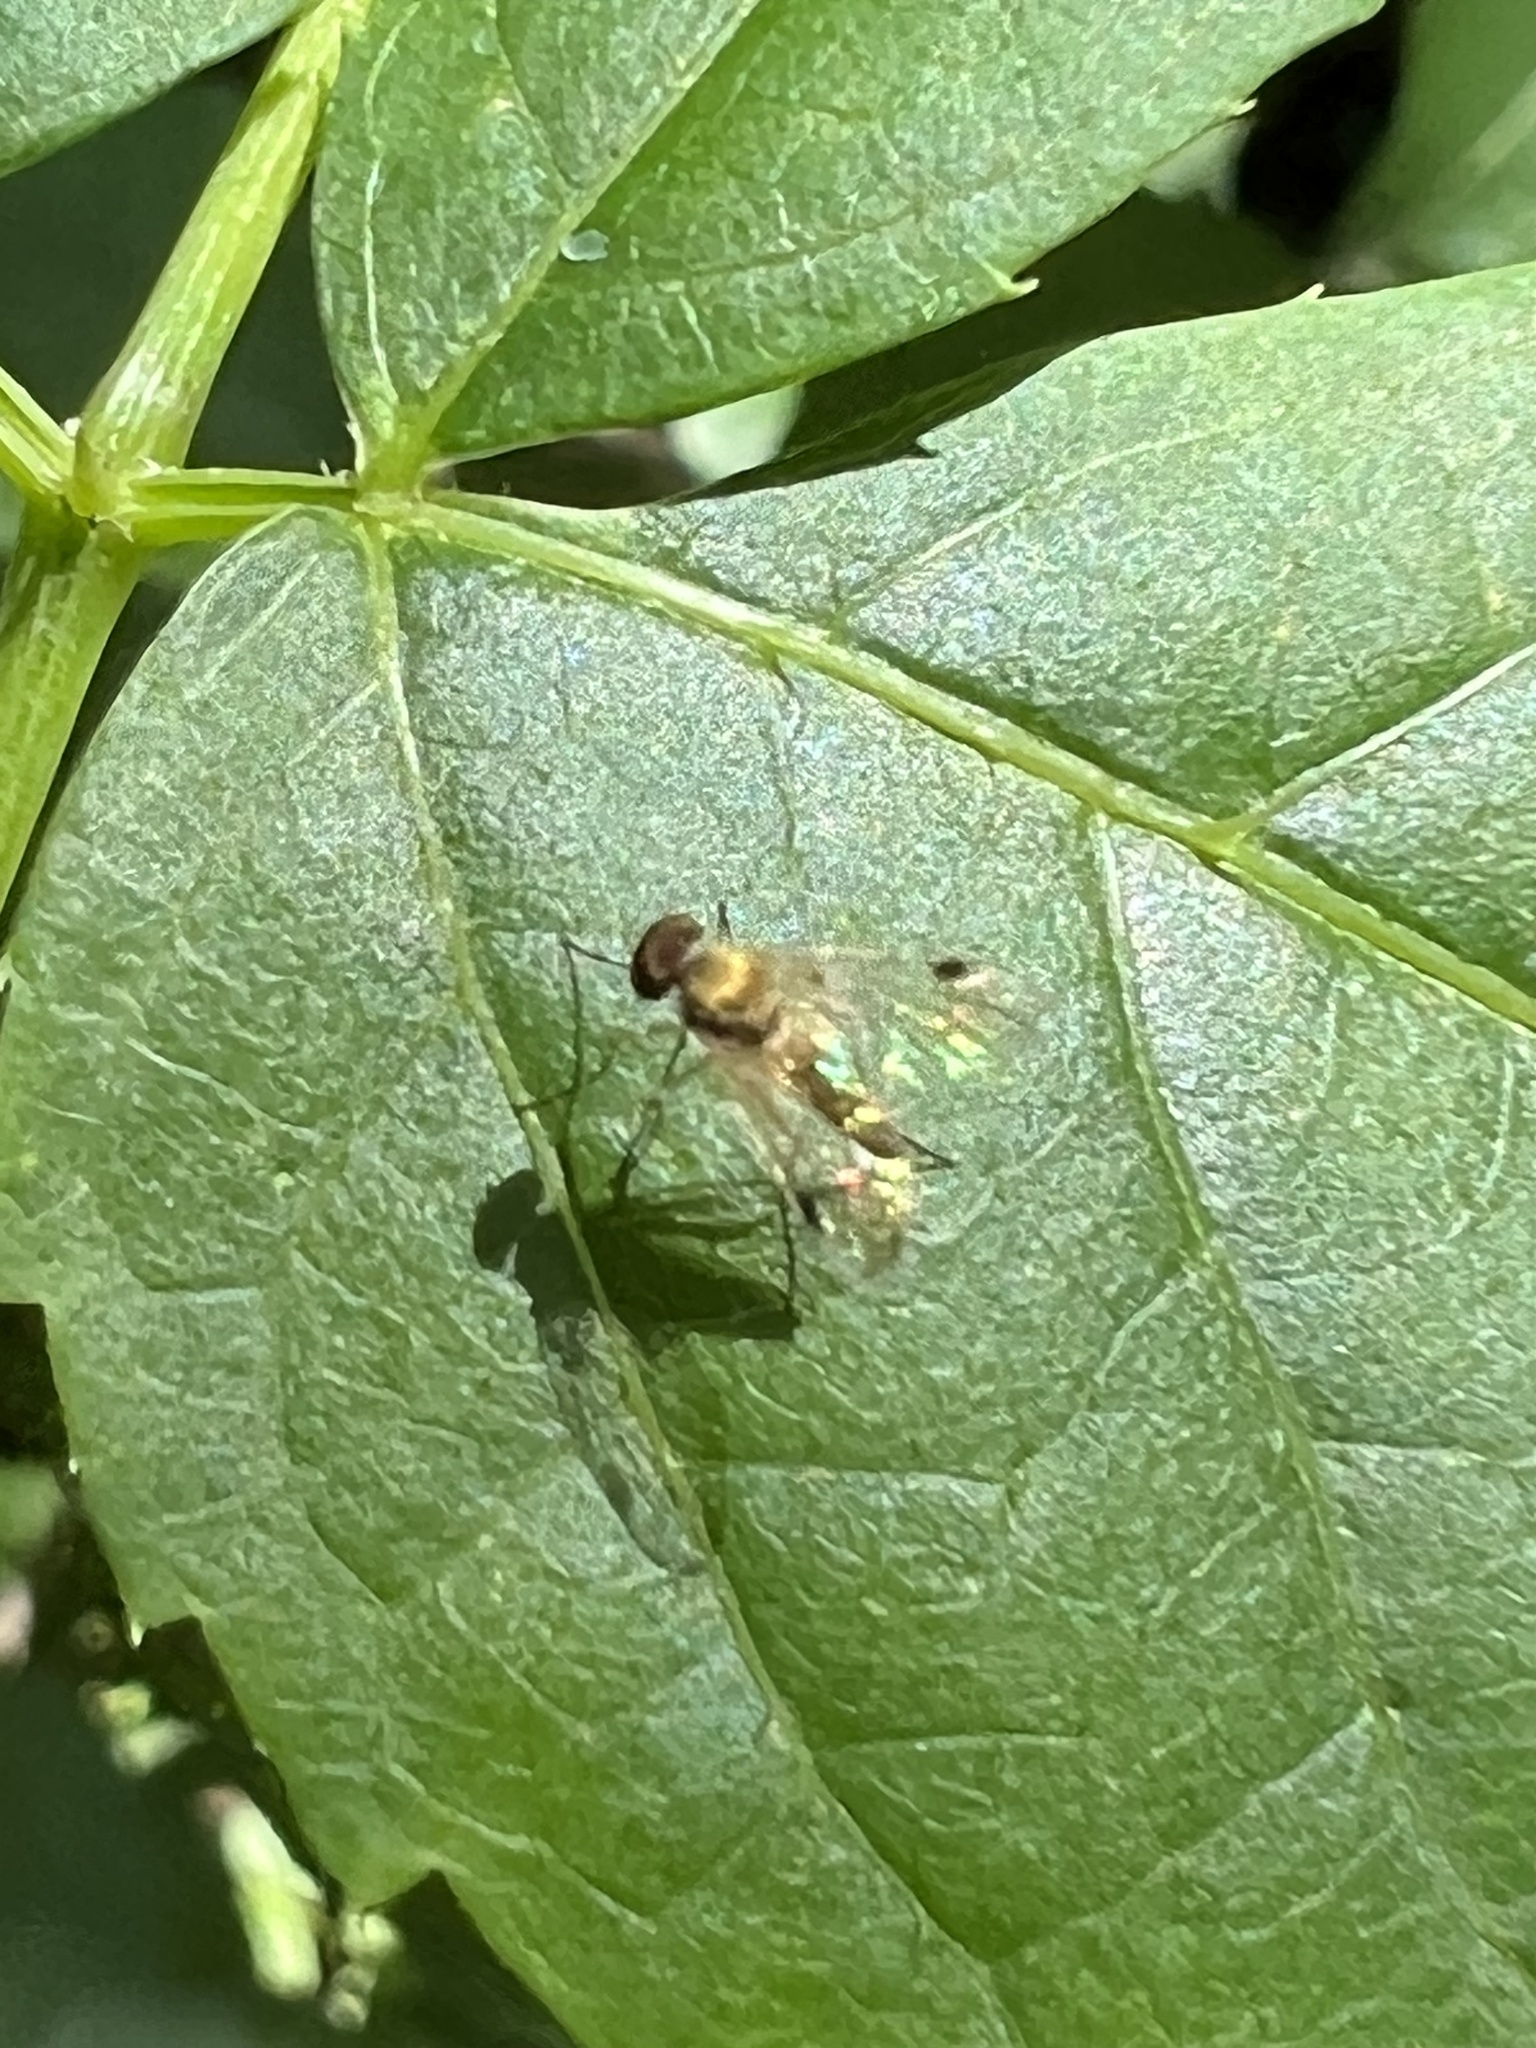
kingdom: Animalia
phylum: Arthropoda
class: Insecta
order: Diptera
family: Rhagionidae
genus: Chrysopilus
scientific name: Chrysopilus modestus
